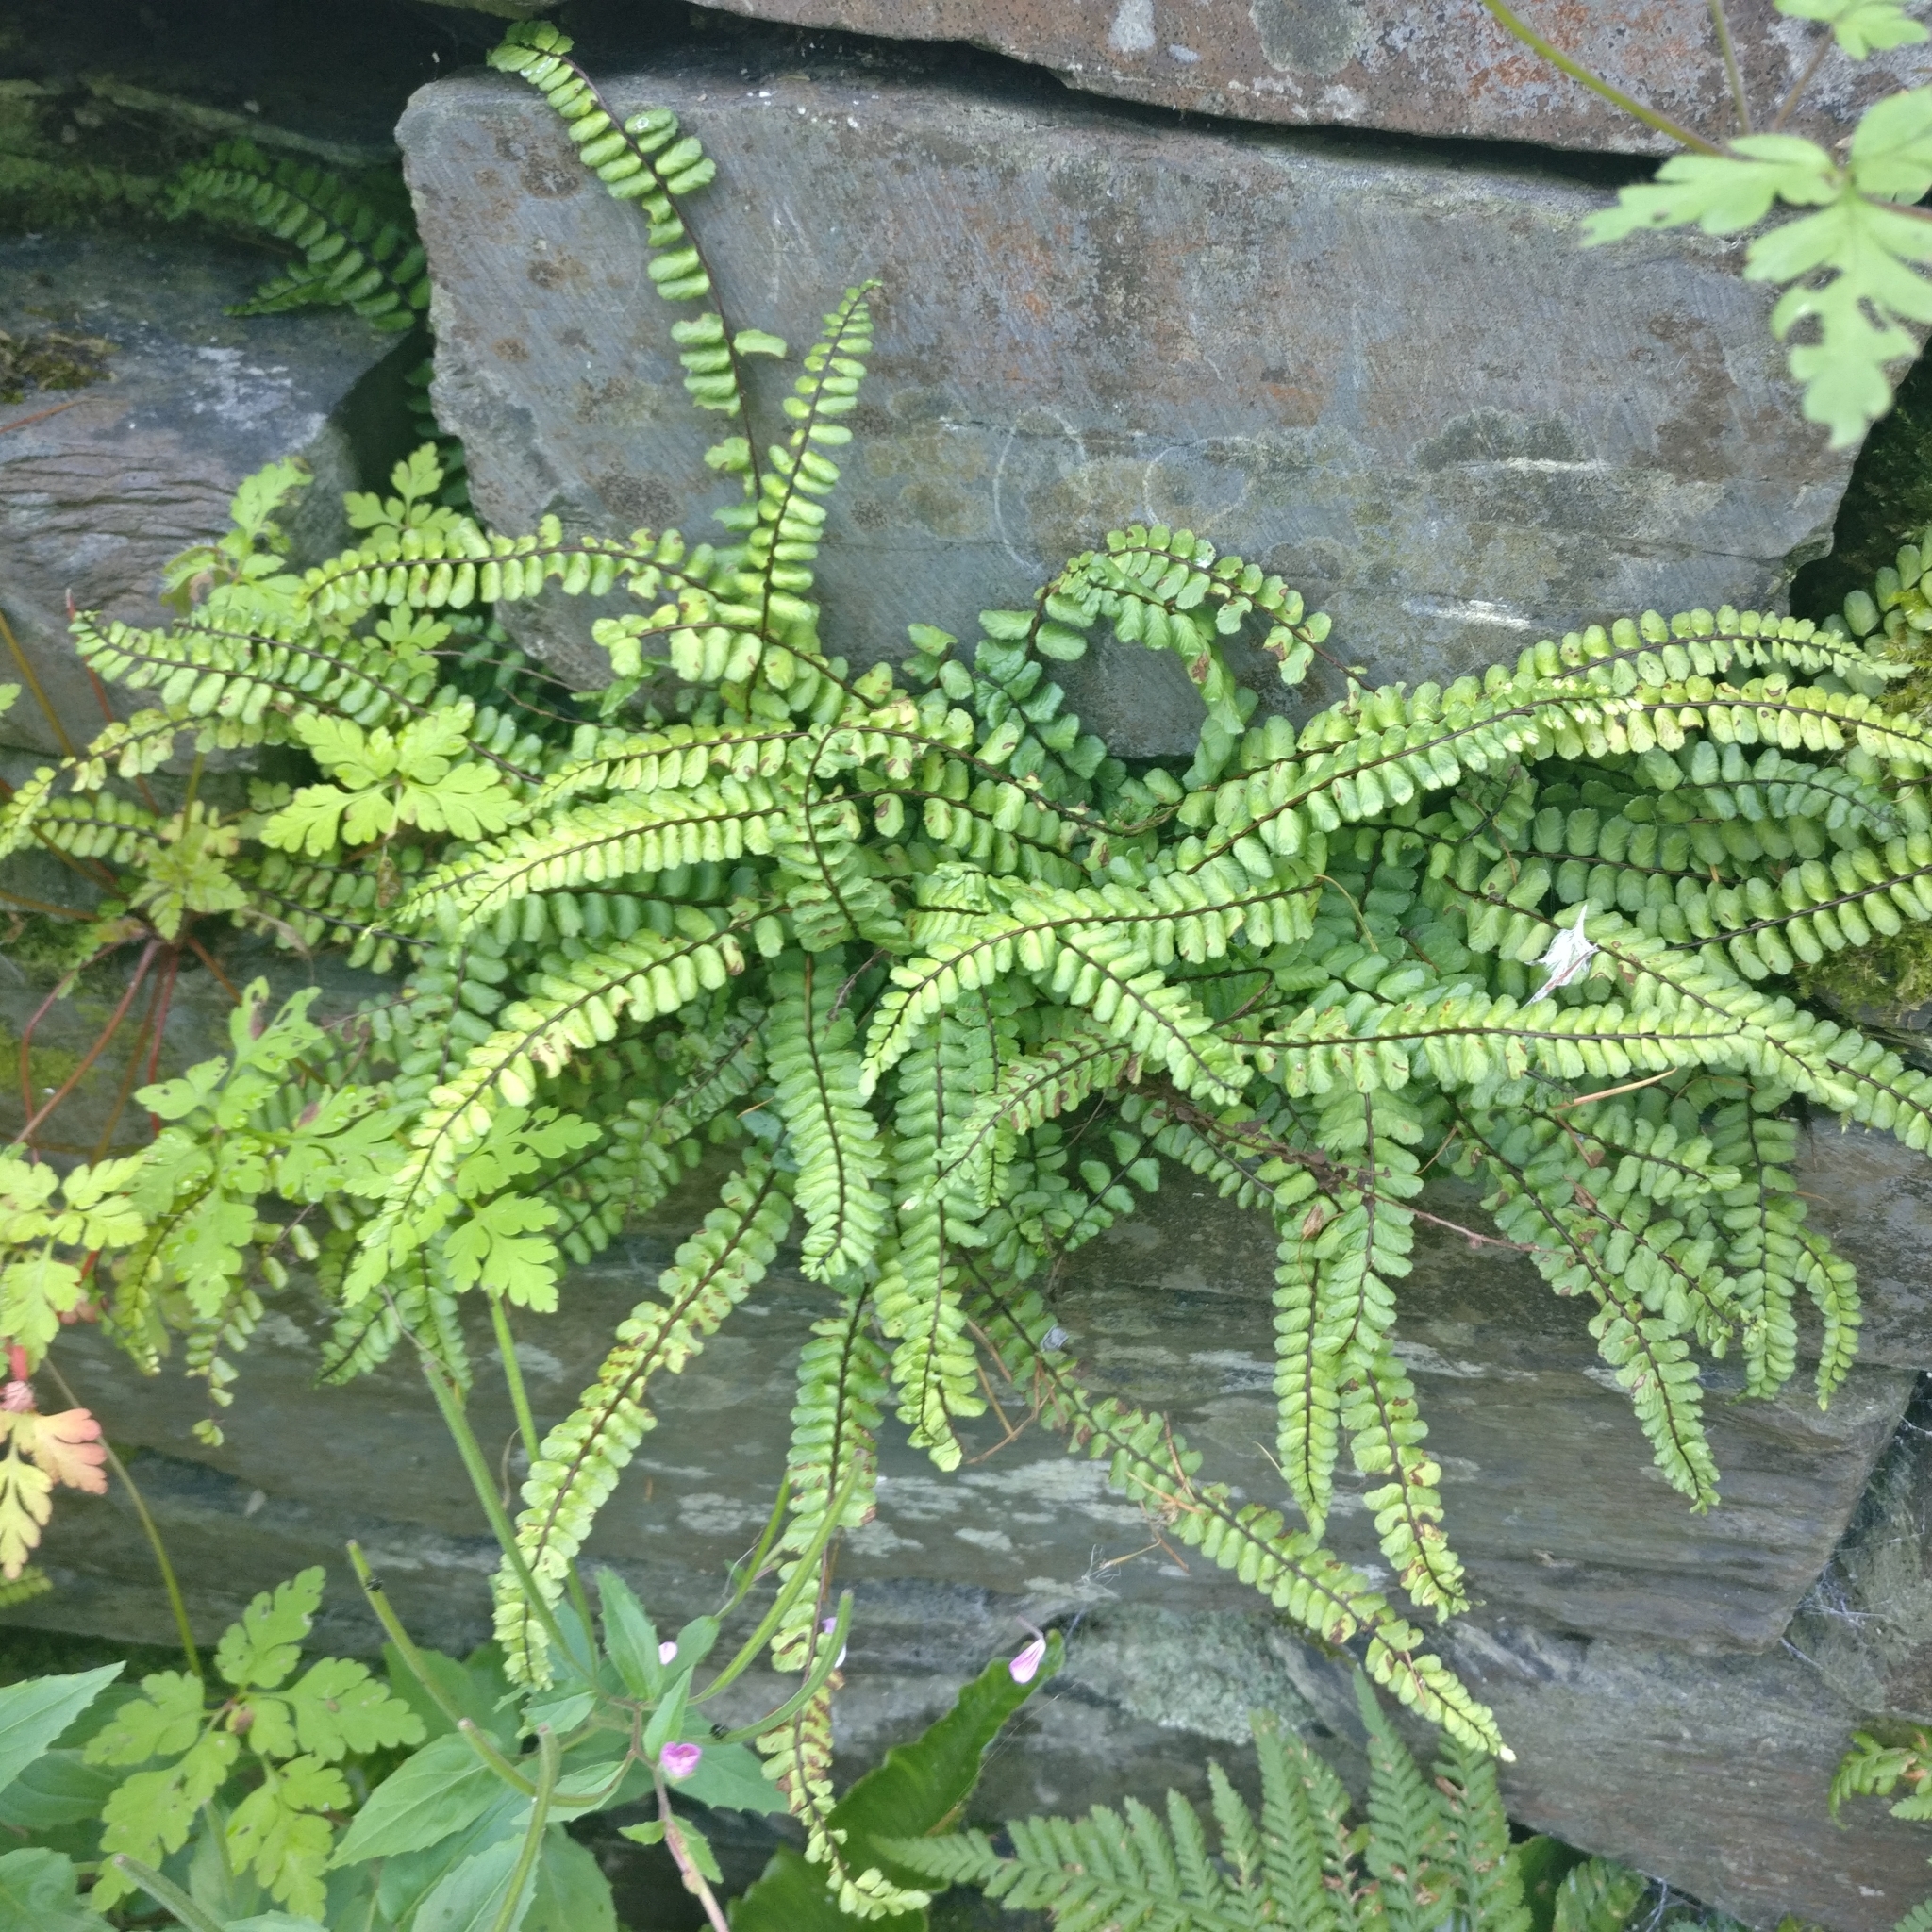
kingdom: Plantae
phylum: Tracheophyta
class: Polypodiopsida
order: Polypodiales
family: Aspleniaceae
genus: Asplenium
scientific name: Asplenium trichomanes
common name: Maidenhair spleenwort
